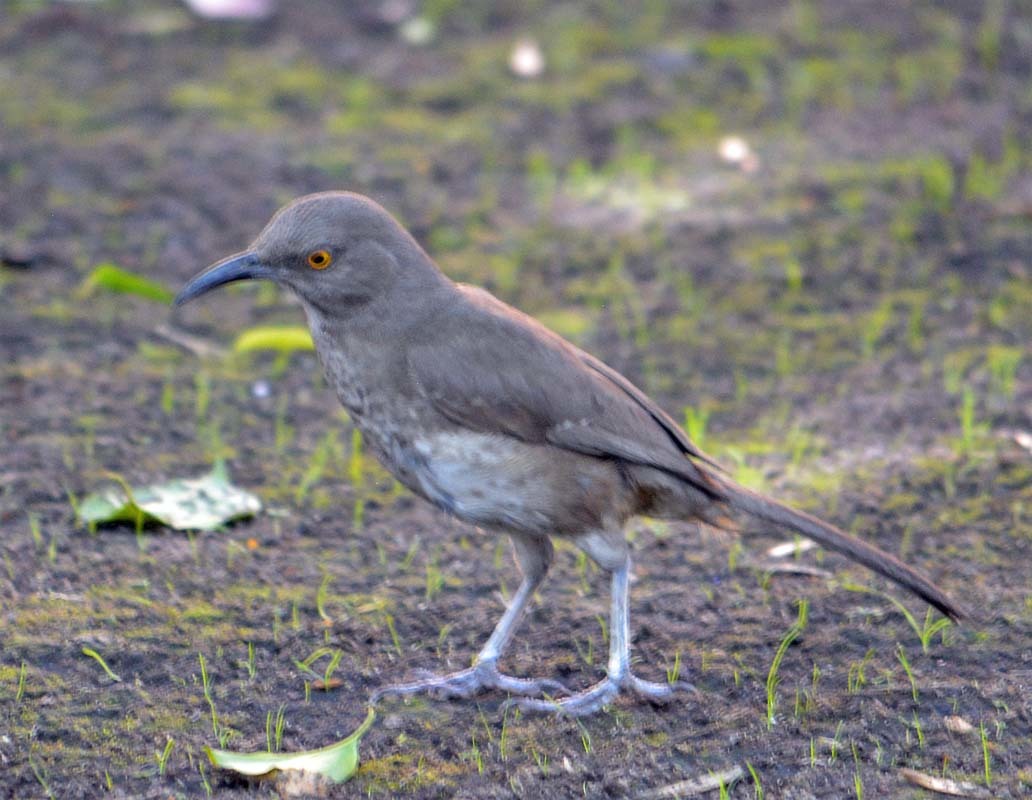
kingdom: Animalia
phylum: Chordata
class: Aves
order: Passeriformes
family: Mimidae
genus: Toxostoma
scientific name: Toxostoma curvirostre
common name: Curve-billed thrasher
